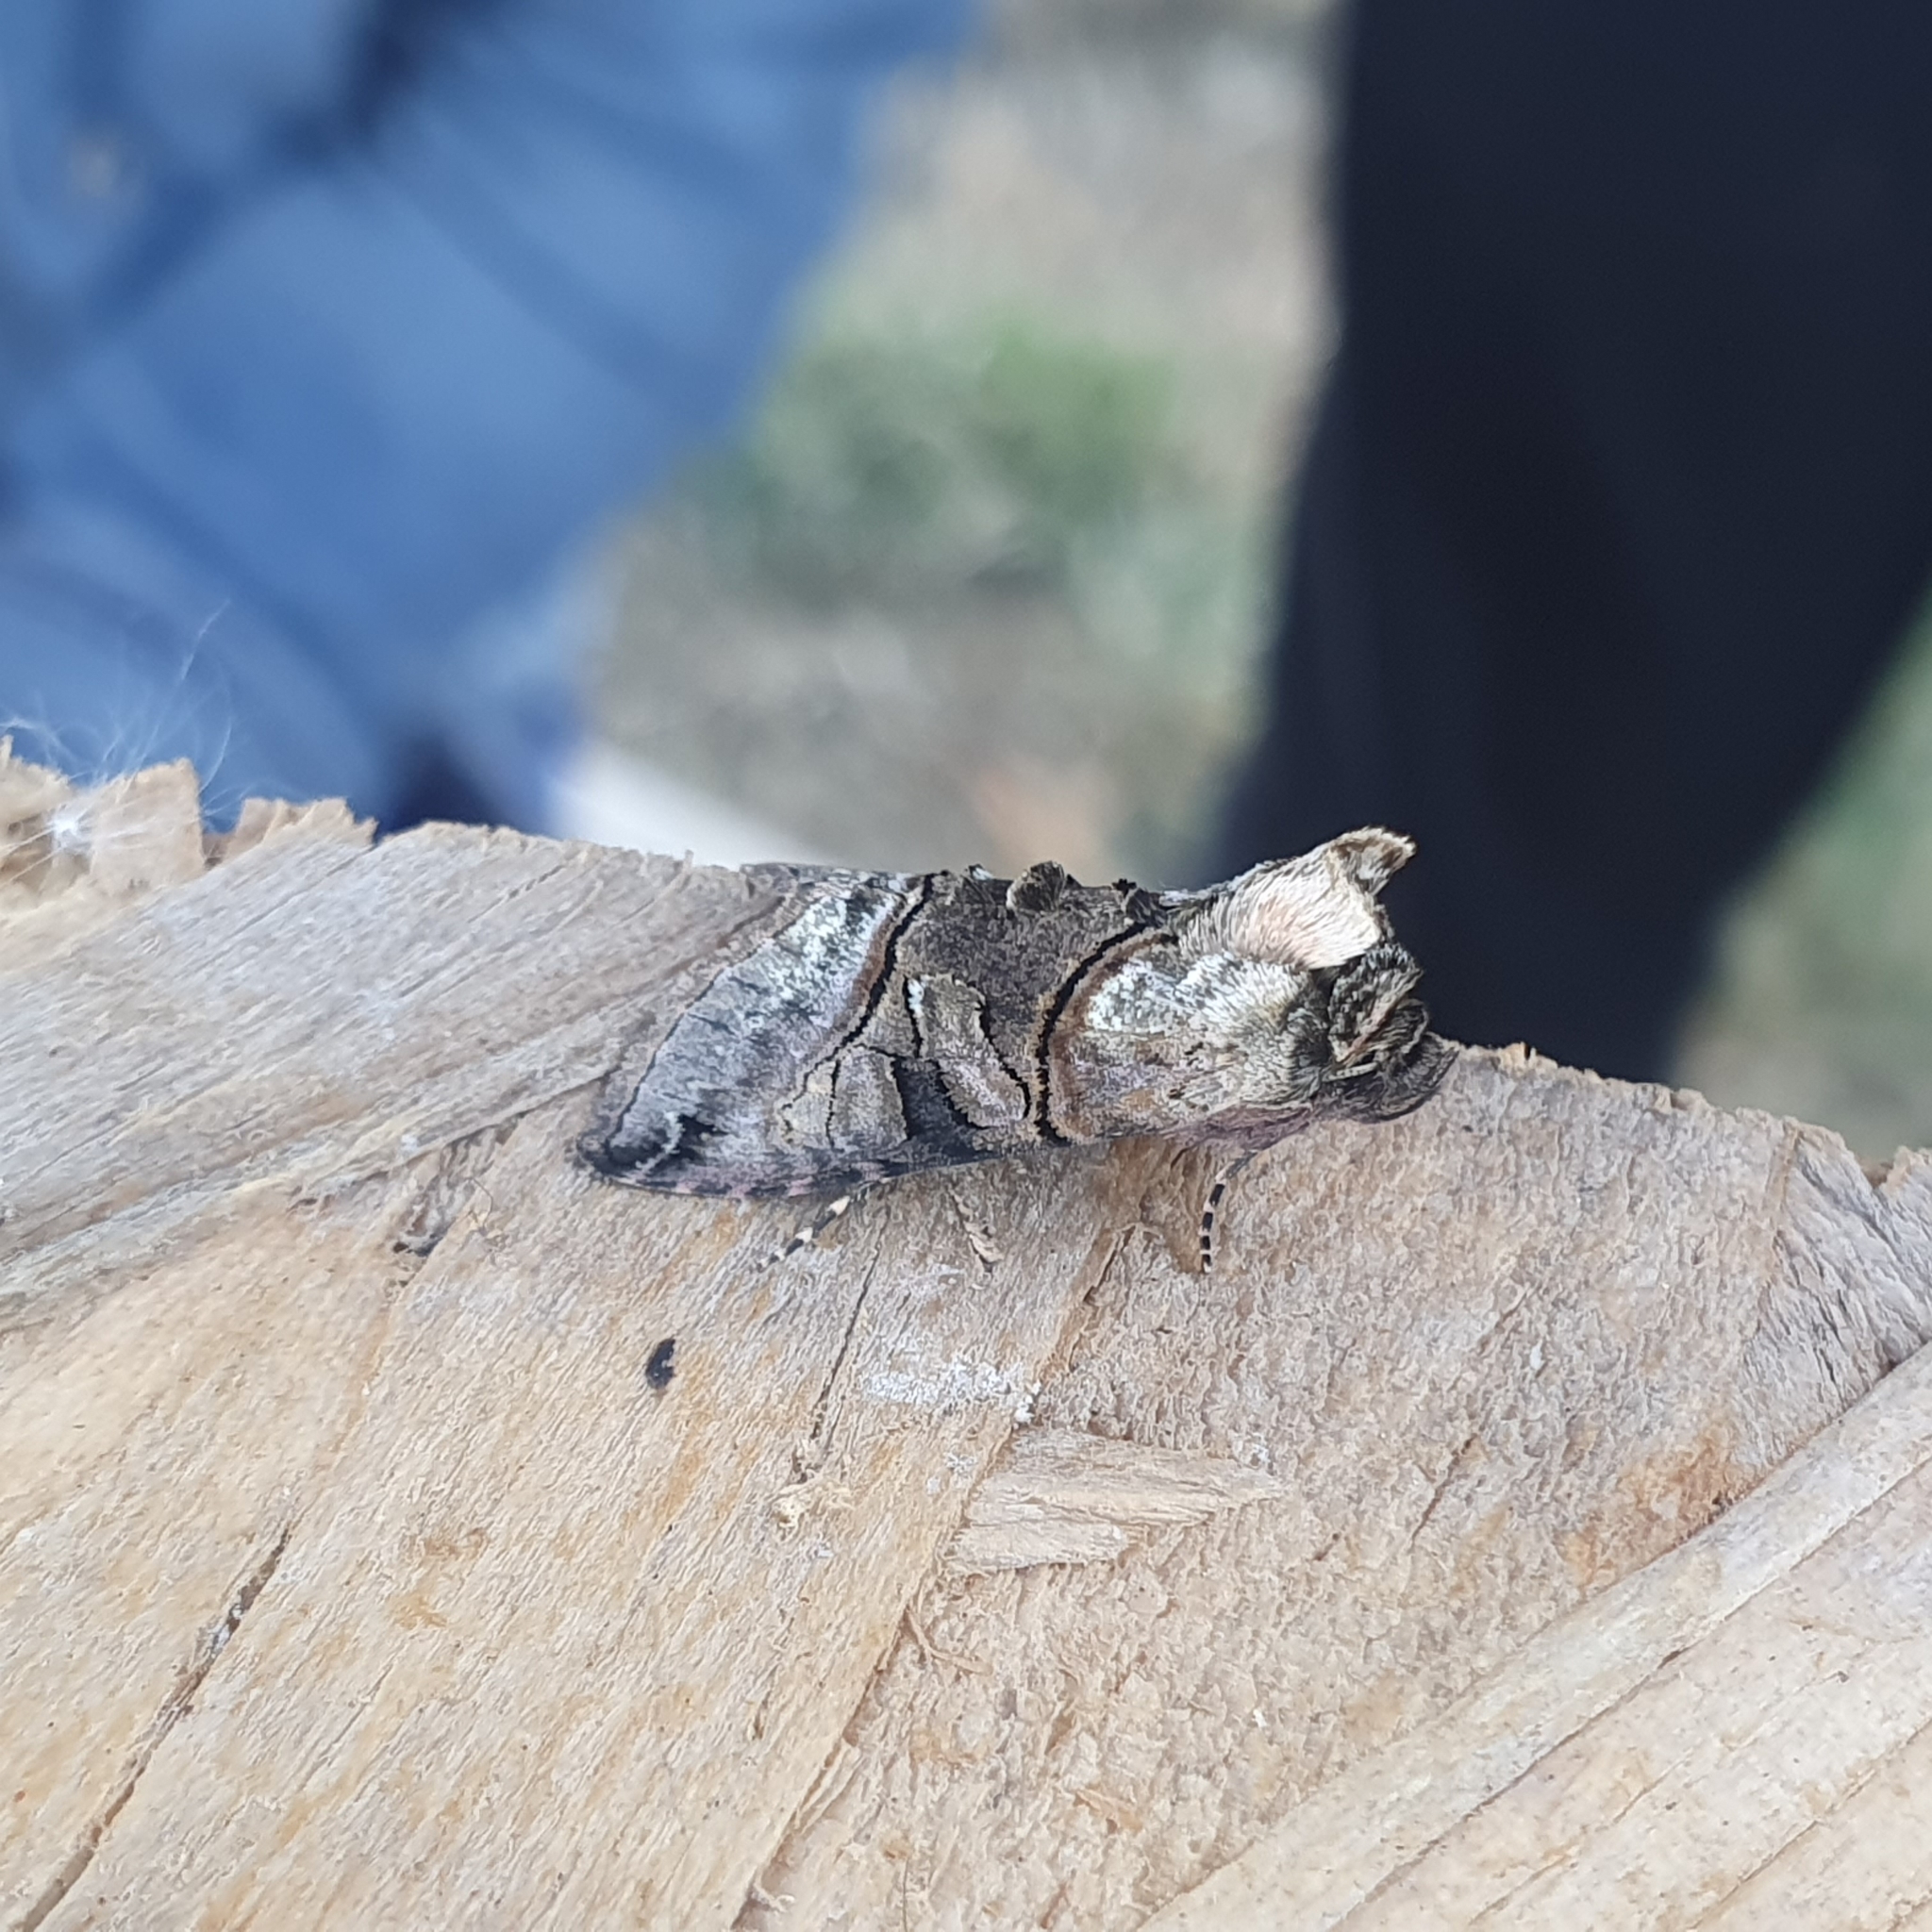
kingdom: Animalia
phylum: Arthropoda
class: Insecta
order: Lepidoptera
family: Noctuidae
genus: Abrostola
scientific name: Abrostola tripartita
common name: Spectacle
